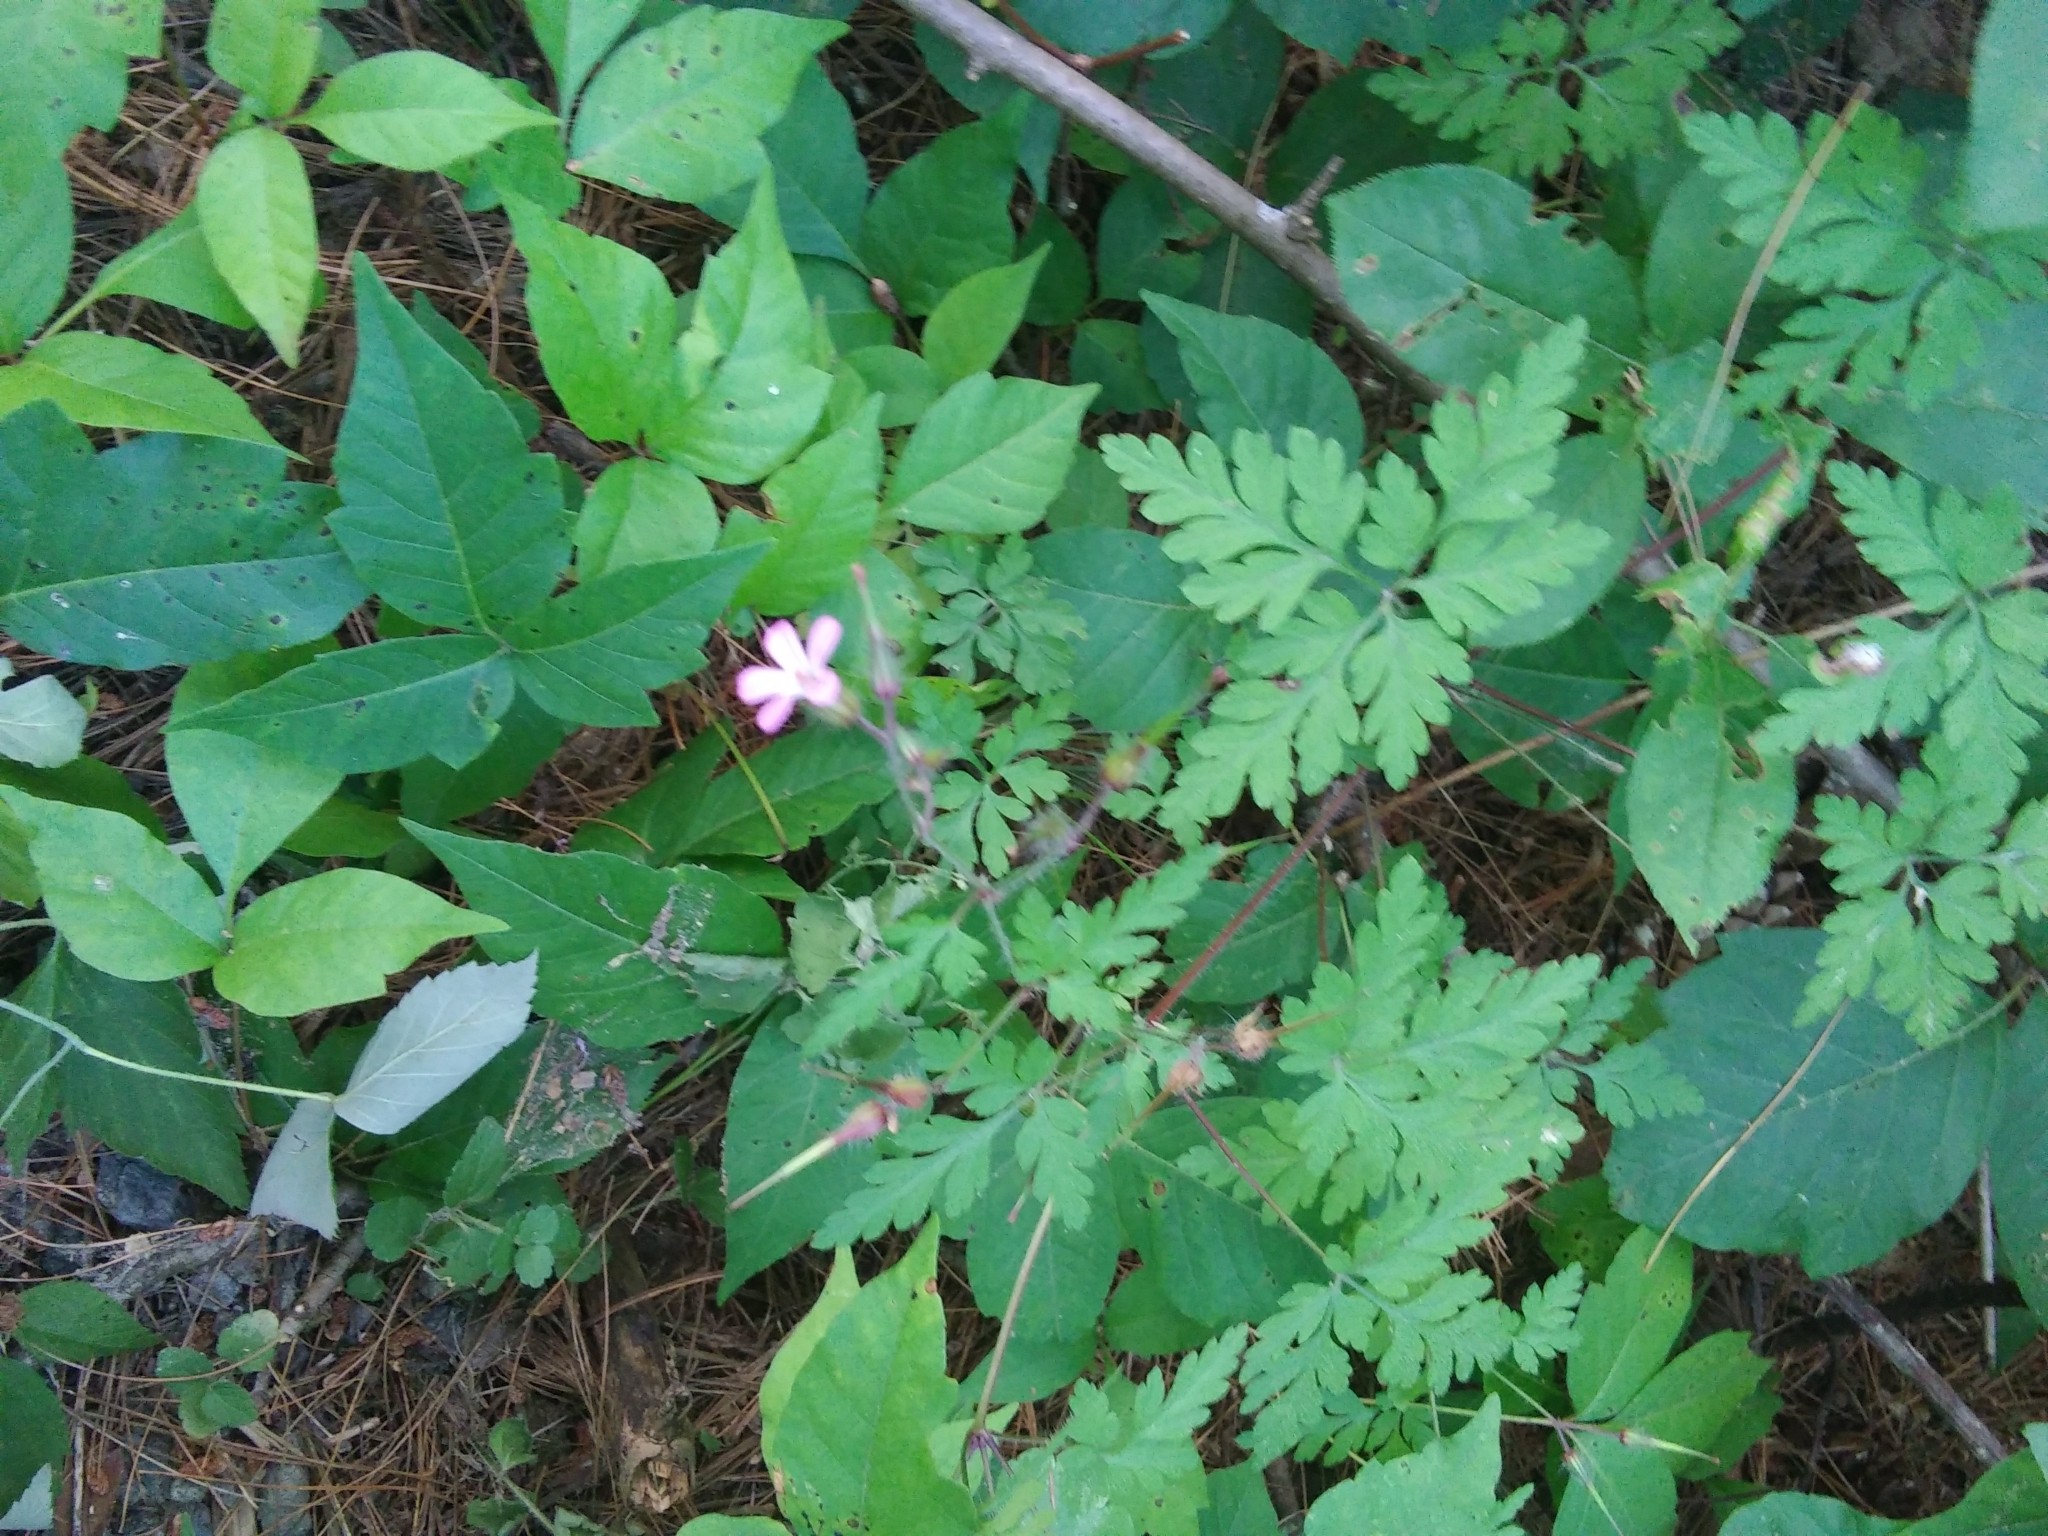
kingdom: Plantae
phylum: Tracheophyta
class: Magnoliopsida
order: Geraniales
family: Geraniaceae
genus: Geranium
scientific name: Geranium robertianum
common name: Herb-robert
